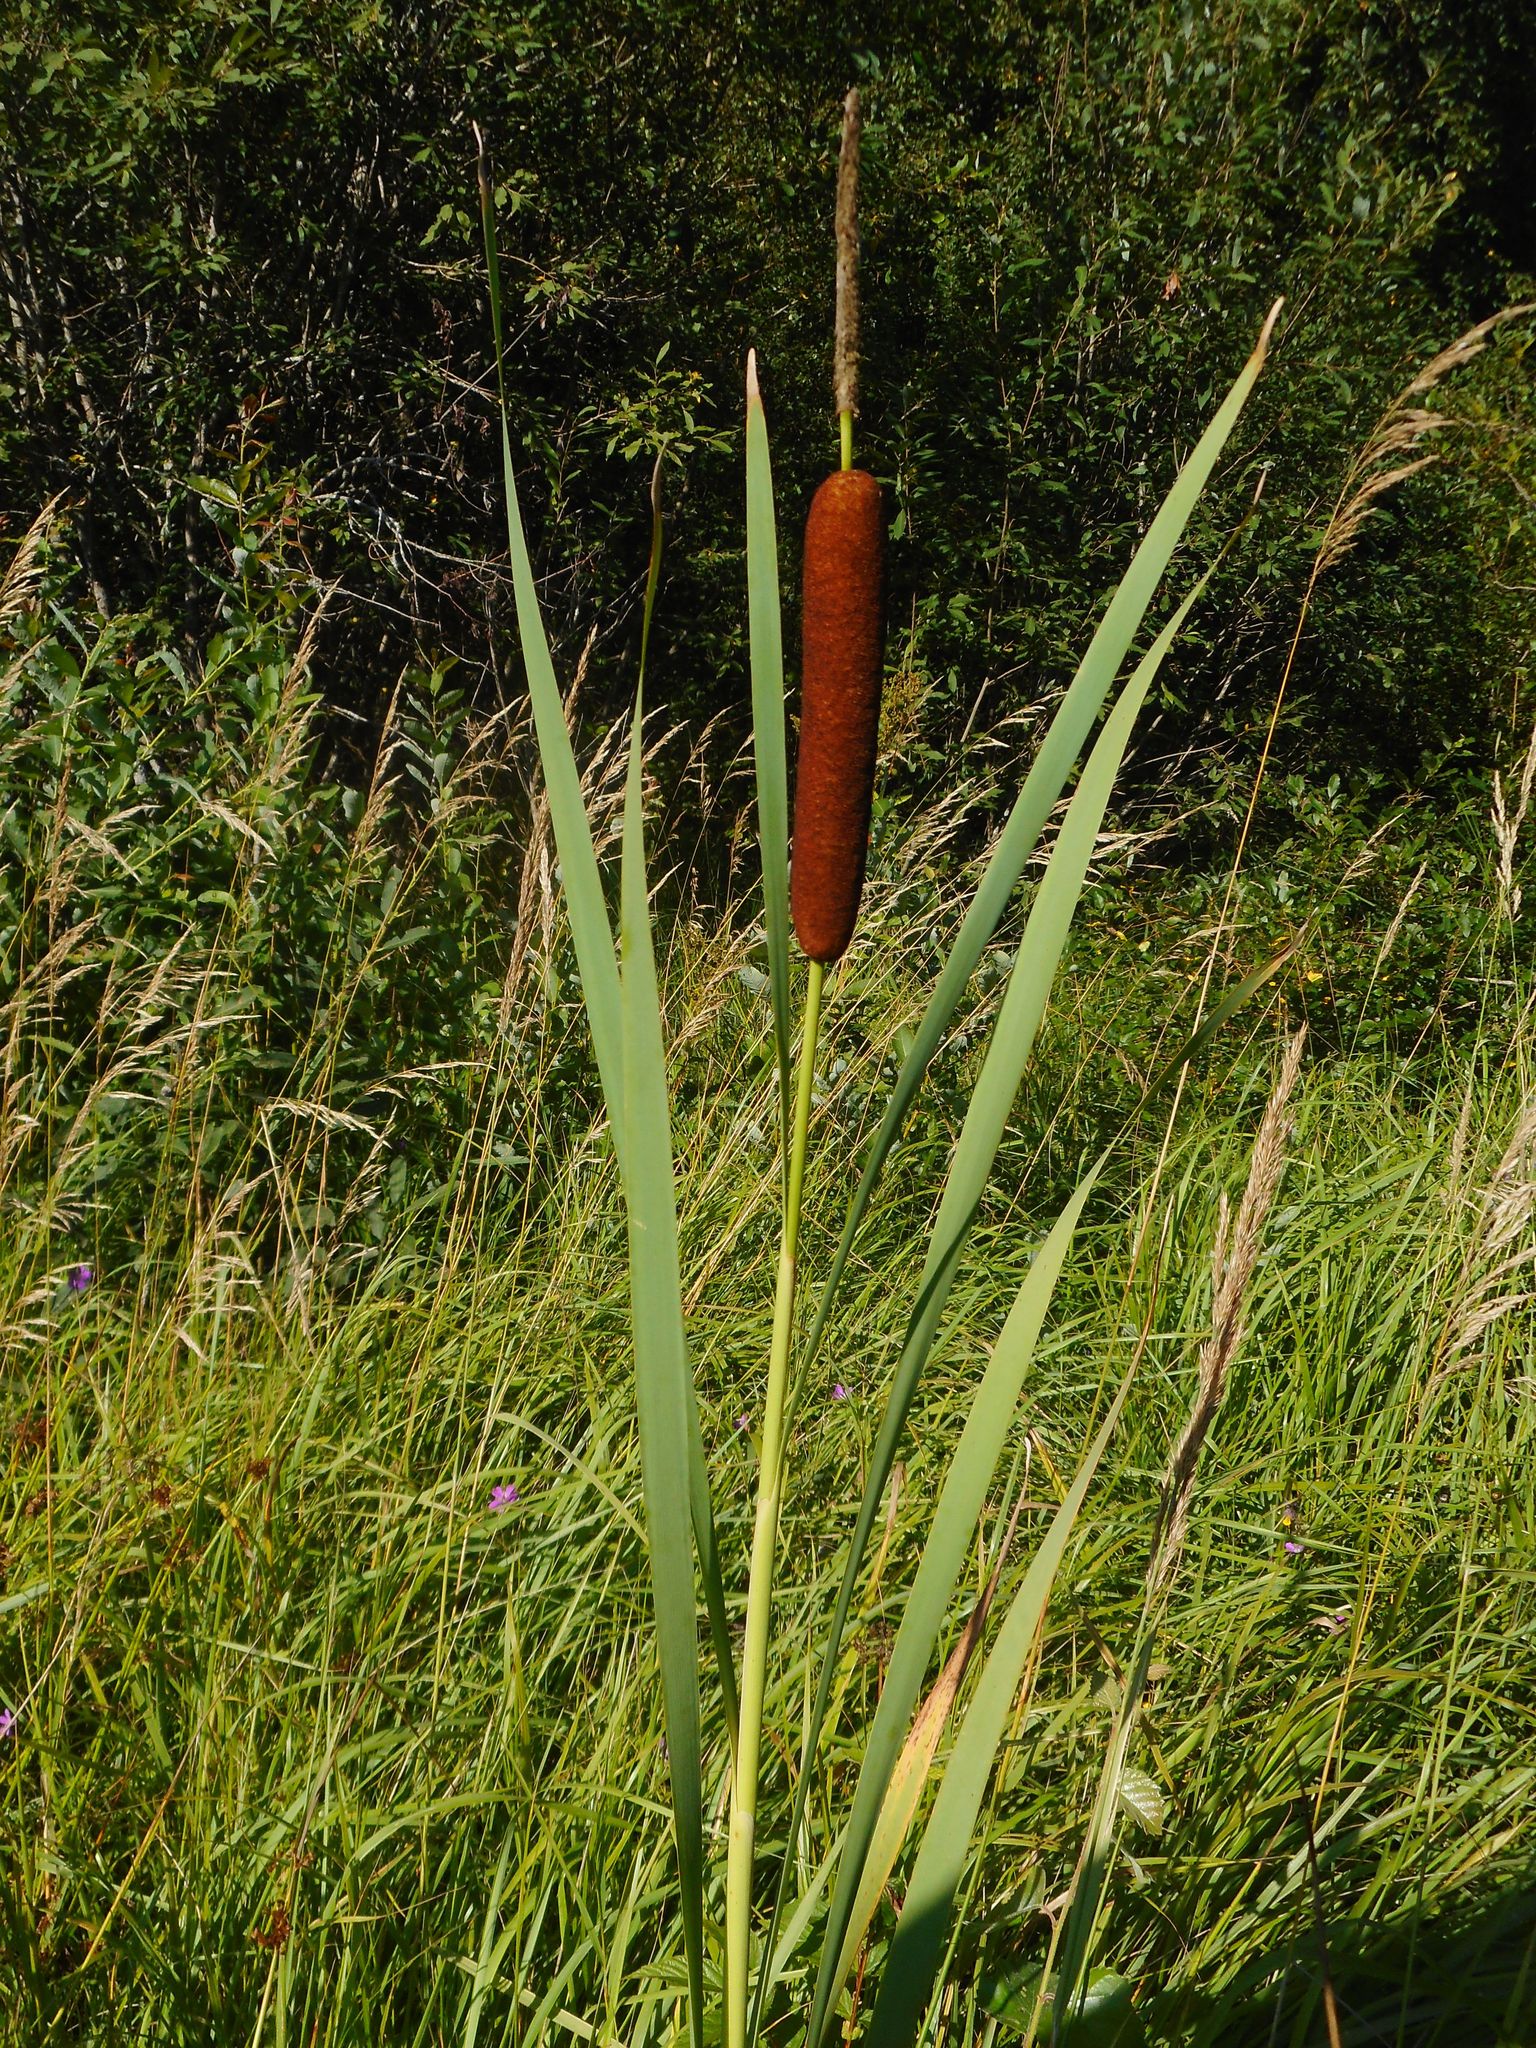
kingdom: Plantae
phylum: Tracheophyta
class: Liliopsida
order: Poales
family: Typhaceae
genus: Typha
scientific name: Typha latifolia
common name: Broadleaf cattail
